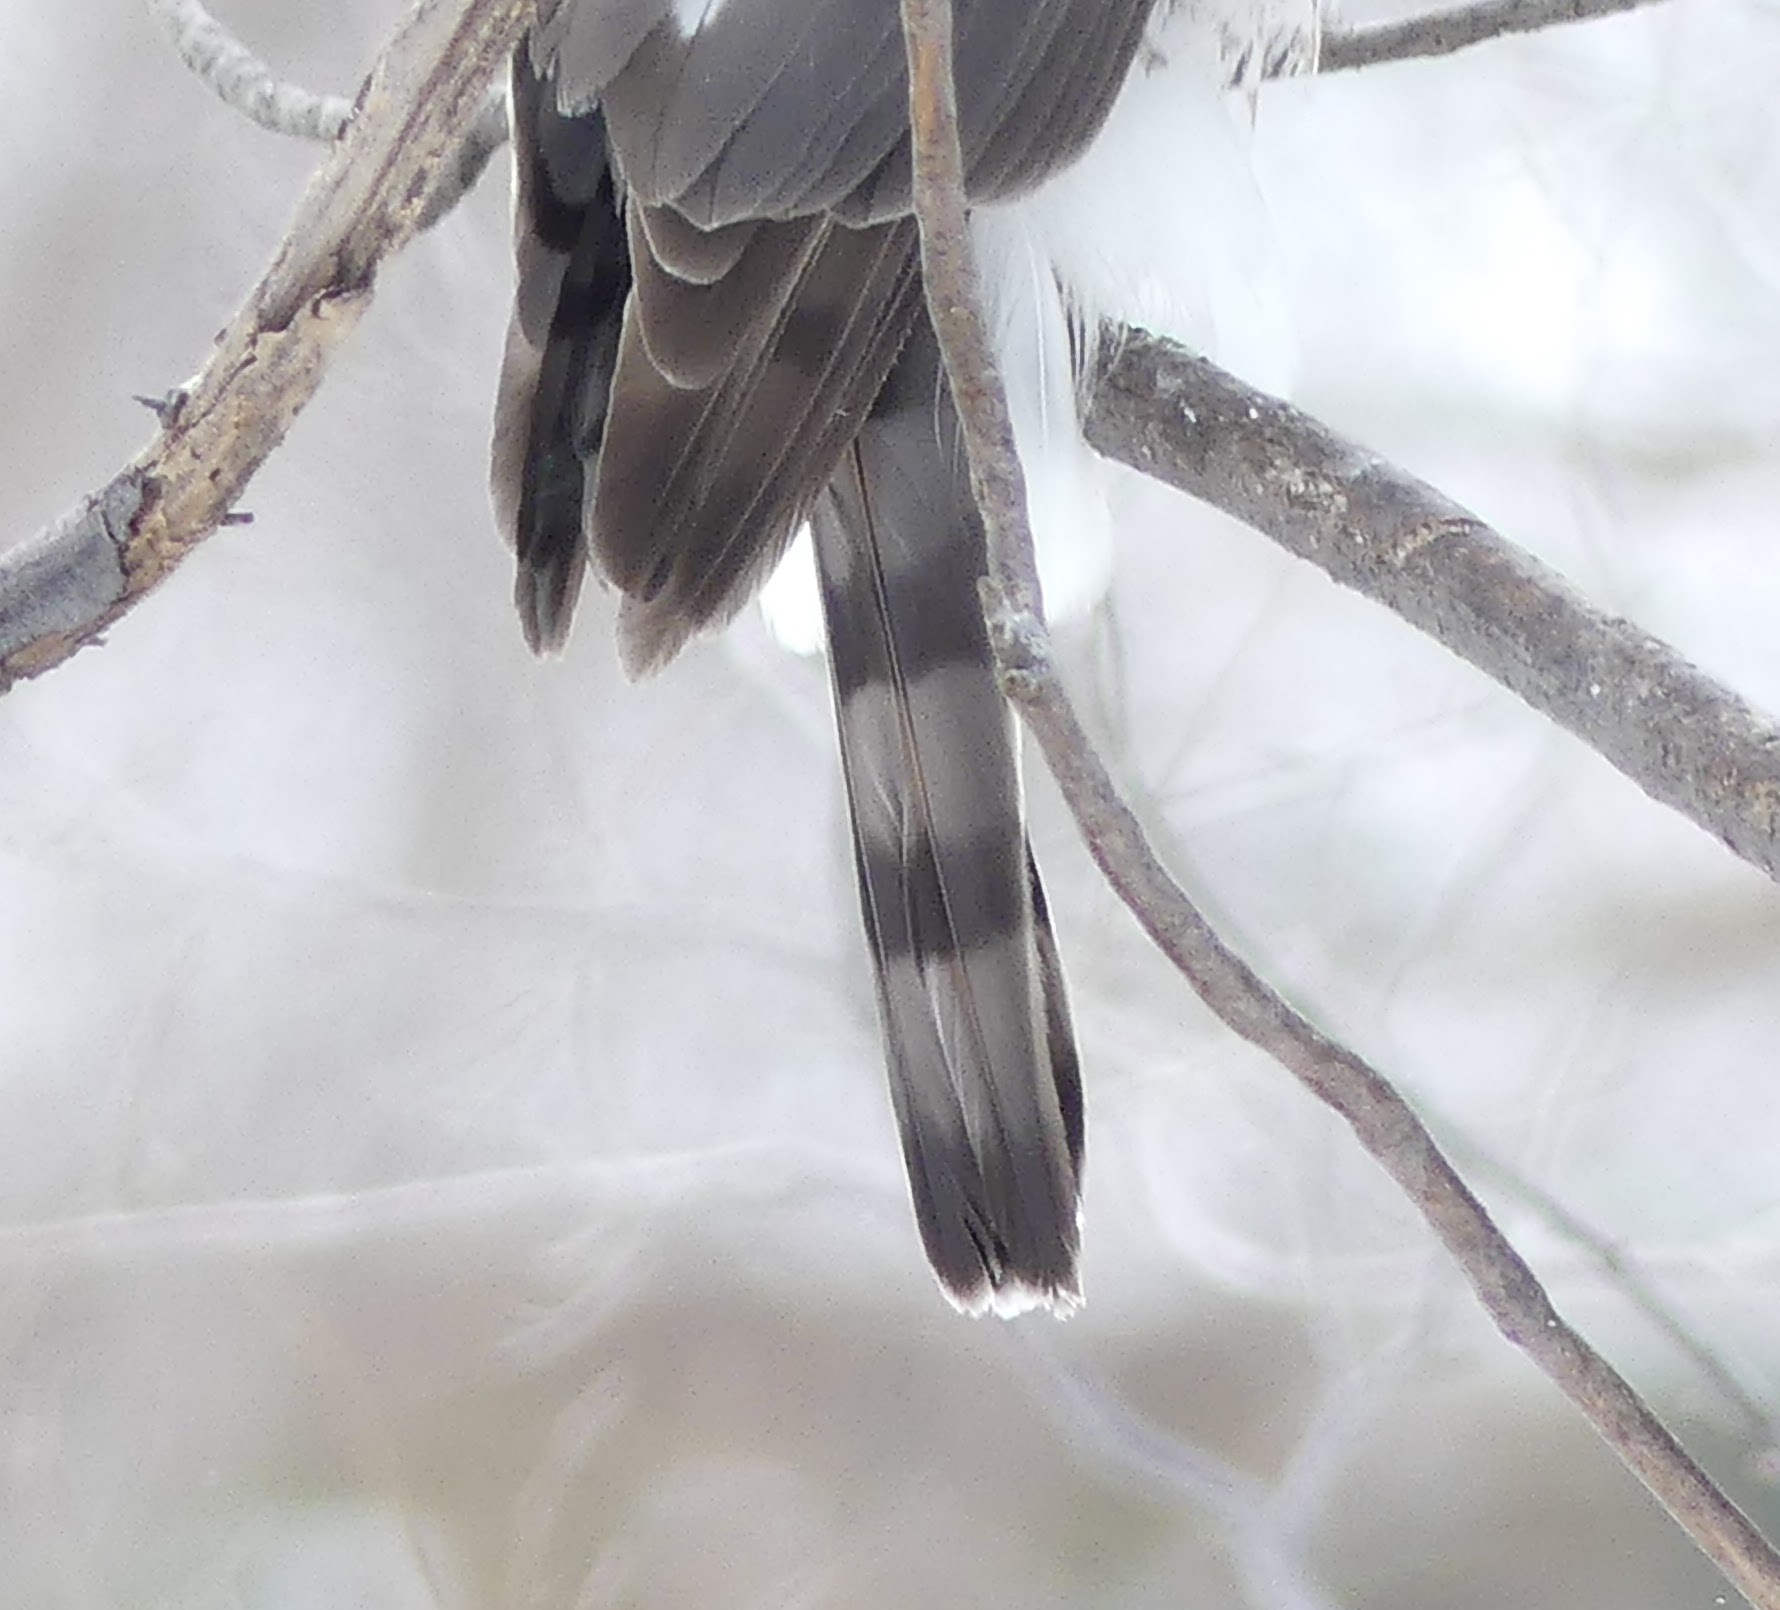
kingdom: Animalia
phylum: Chordata
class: Aves
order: Accipitriformes
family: Accipitridae
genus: Accipiter
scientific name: Accipiter striatus
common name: Sharp-shinned hawk
